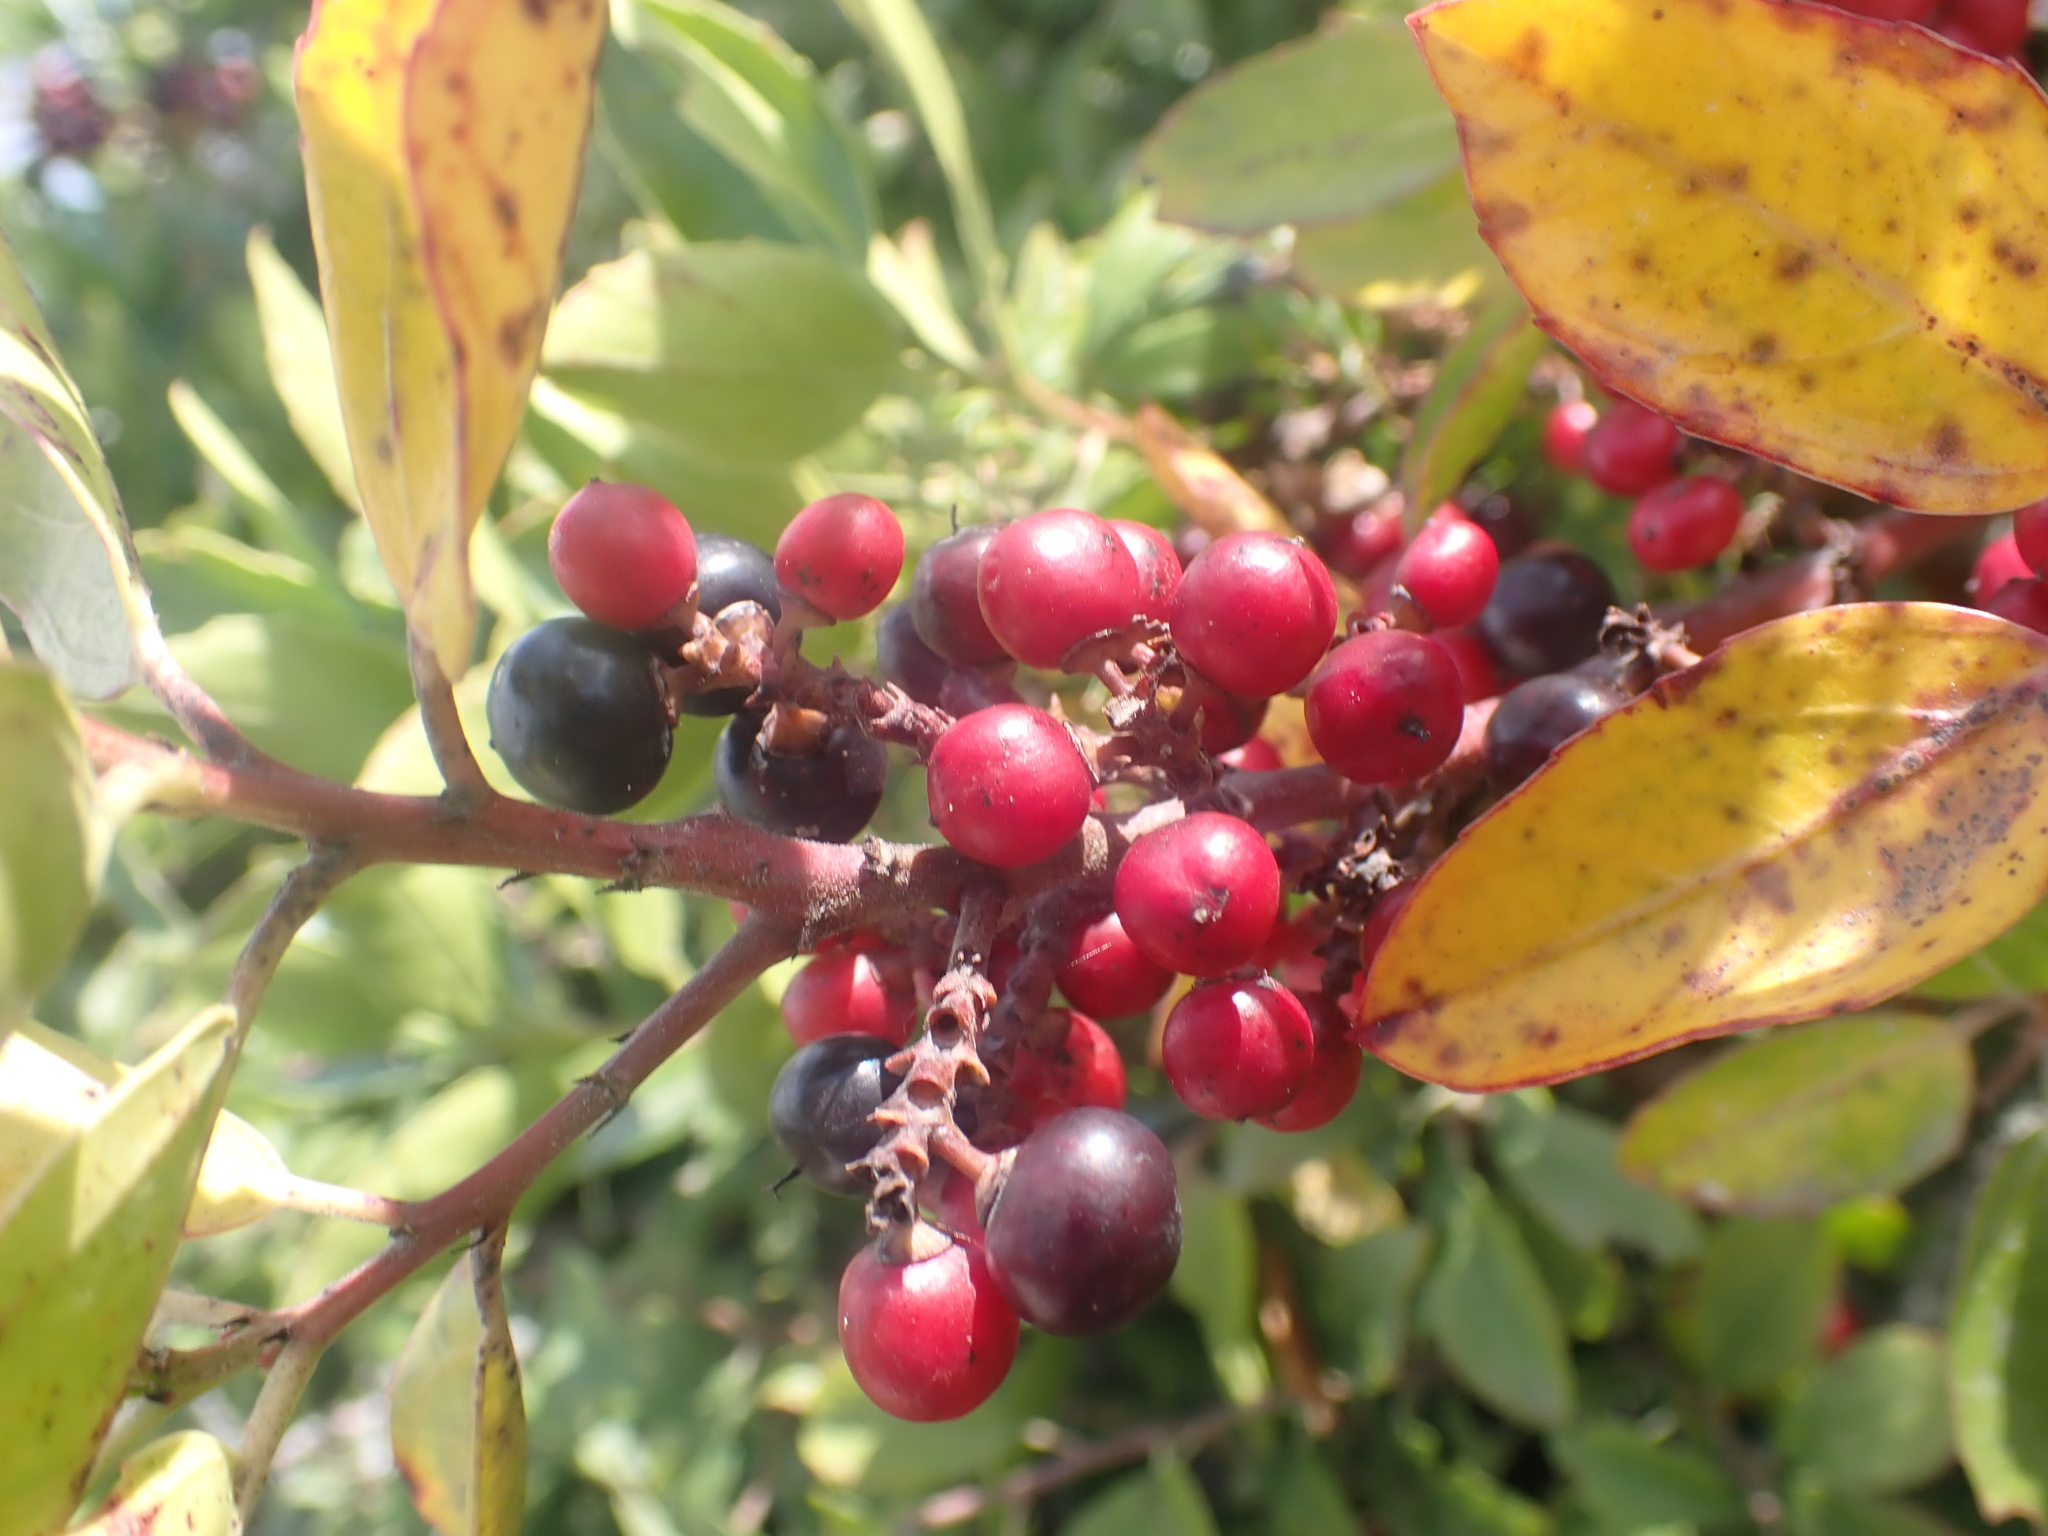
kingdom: Plantae
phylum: Tracheophyta
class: Magnoliopsida
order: Rosales
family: Rhamnaceae
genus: Rhamnus
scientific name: Rhamnus alaternus
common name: Mediterranean buckthorn
